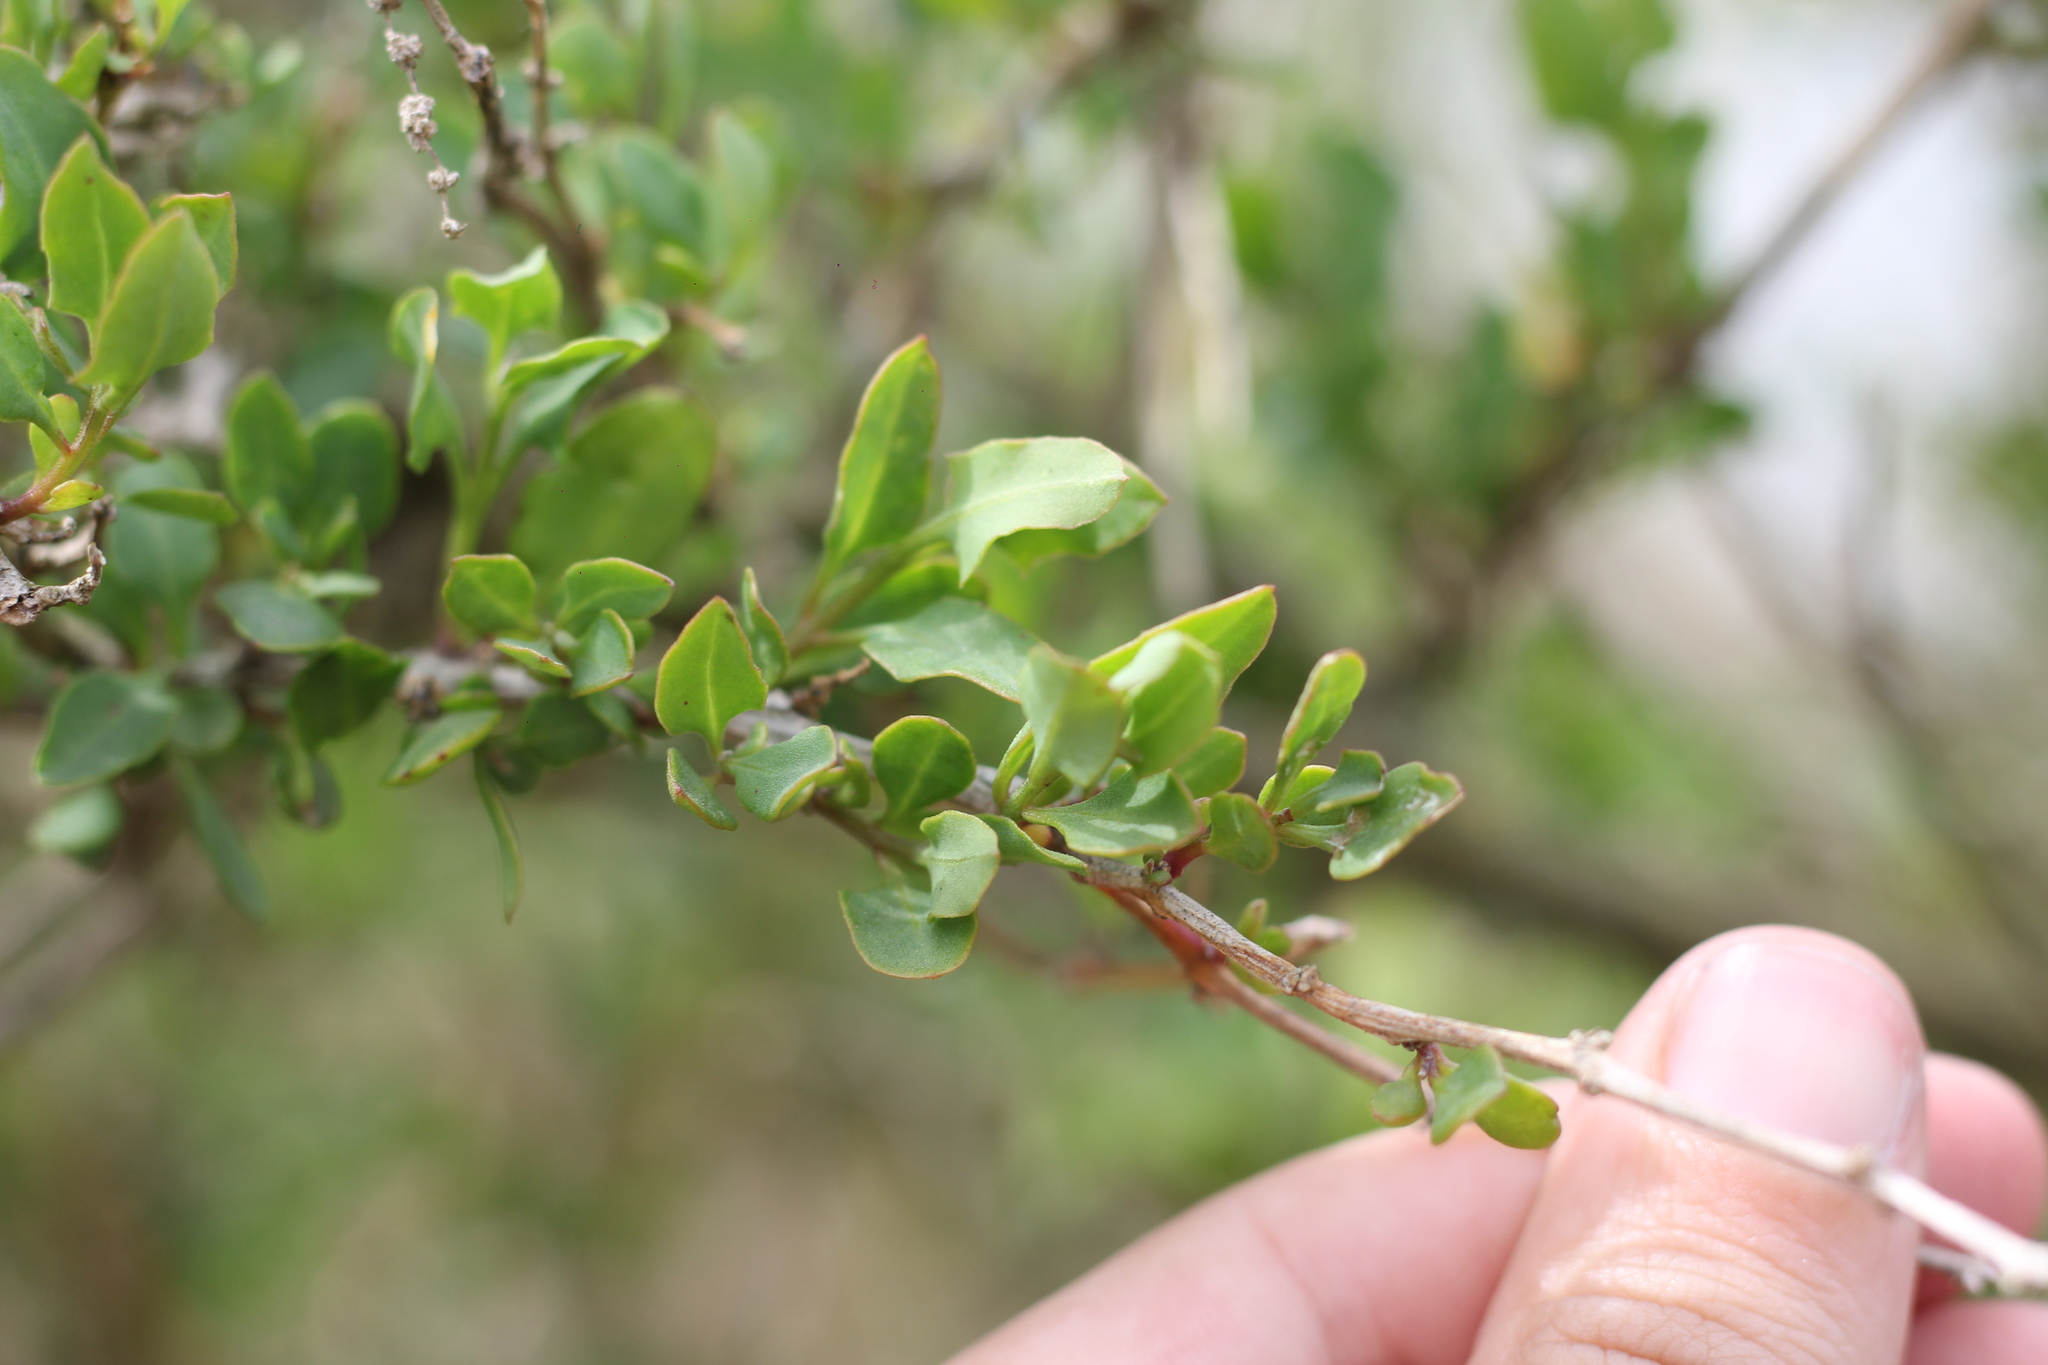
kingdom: Plantae
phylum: Tracheophyta
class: Magnoliopsida
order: Lamiales
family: Verbenaceae
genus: Aloysia
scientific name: Aloysia gratissima
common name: Common bee-brush
